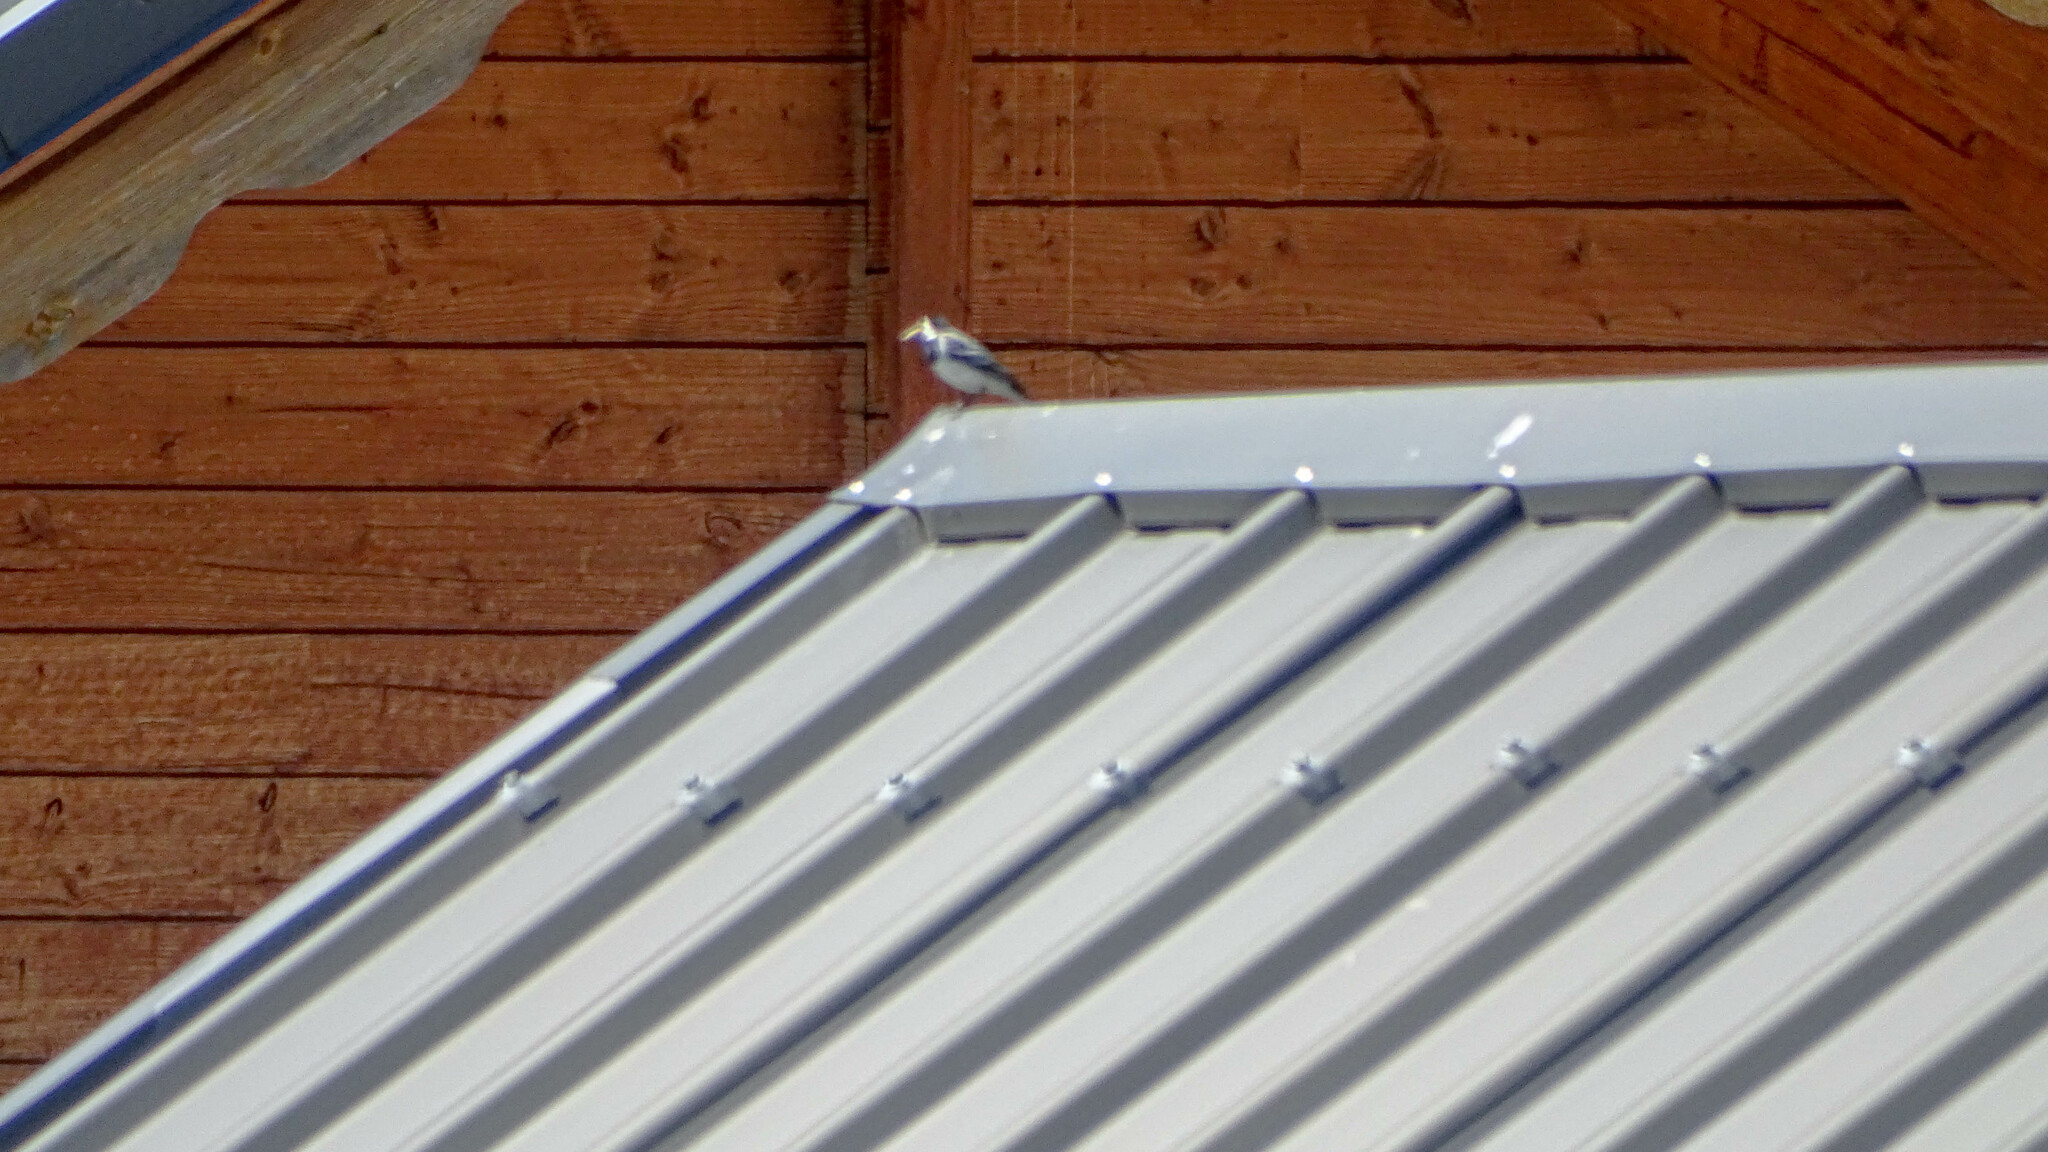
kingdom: Animalia
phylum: Chordata
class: Aves
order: Passeriformes
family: Motacillidae
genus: Motacilla
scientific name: Motacilla alba
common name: White wagtail
